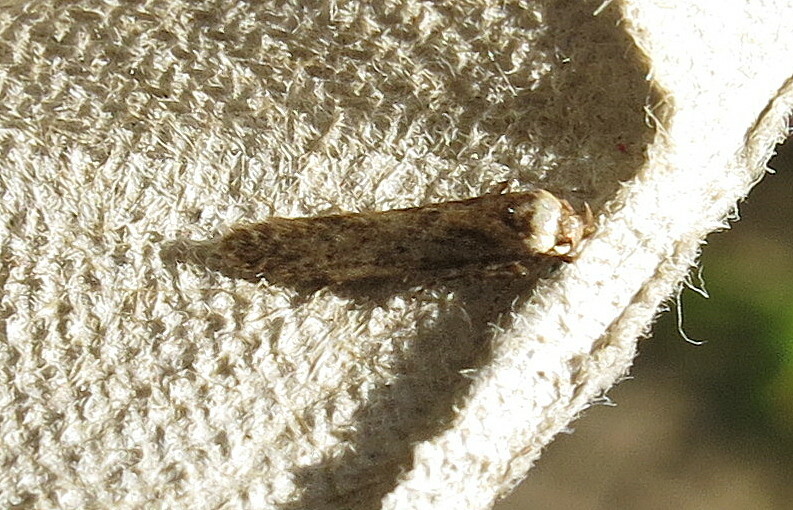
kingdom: Animalia
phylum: Arthropoda
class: Insecta
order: Lepidoptera
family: Blastobasidae
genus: Blastobasis
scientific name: Blastobasis adustella
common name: Dingy dowd
